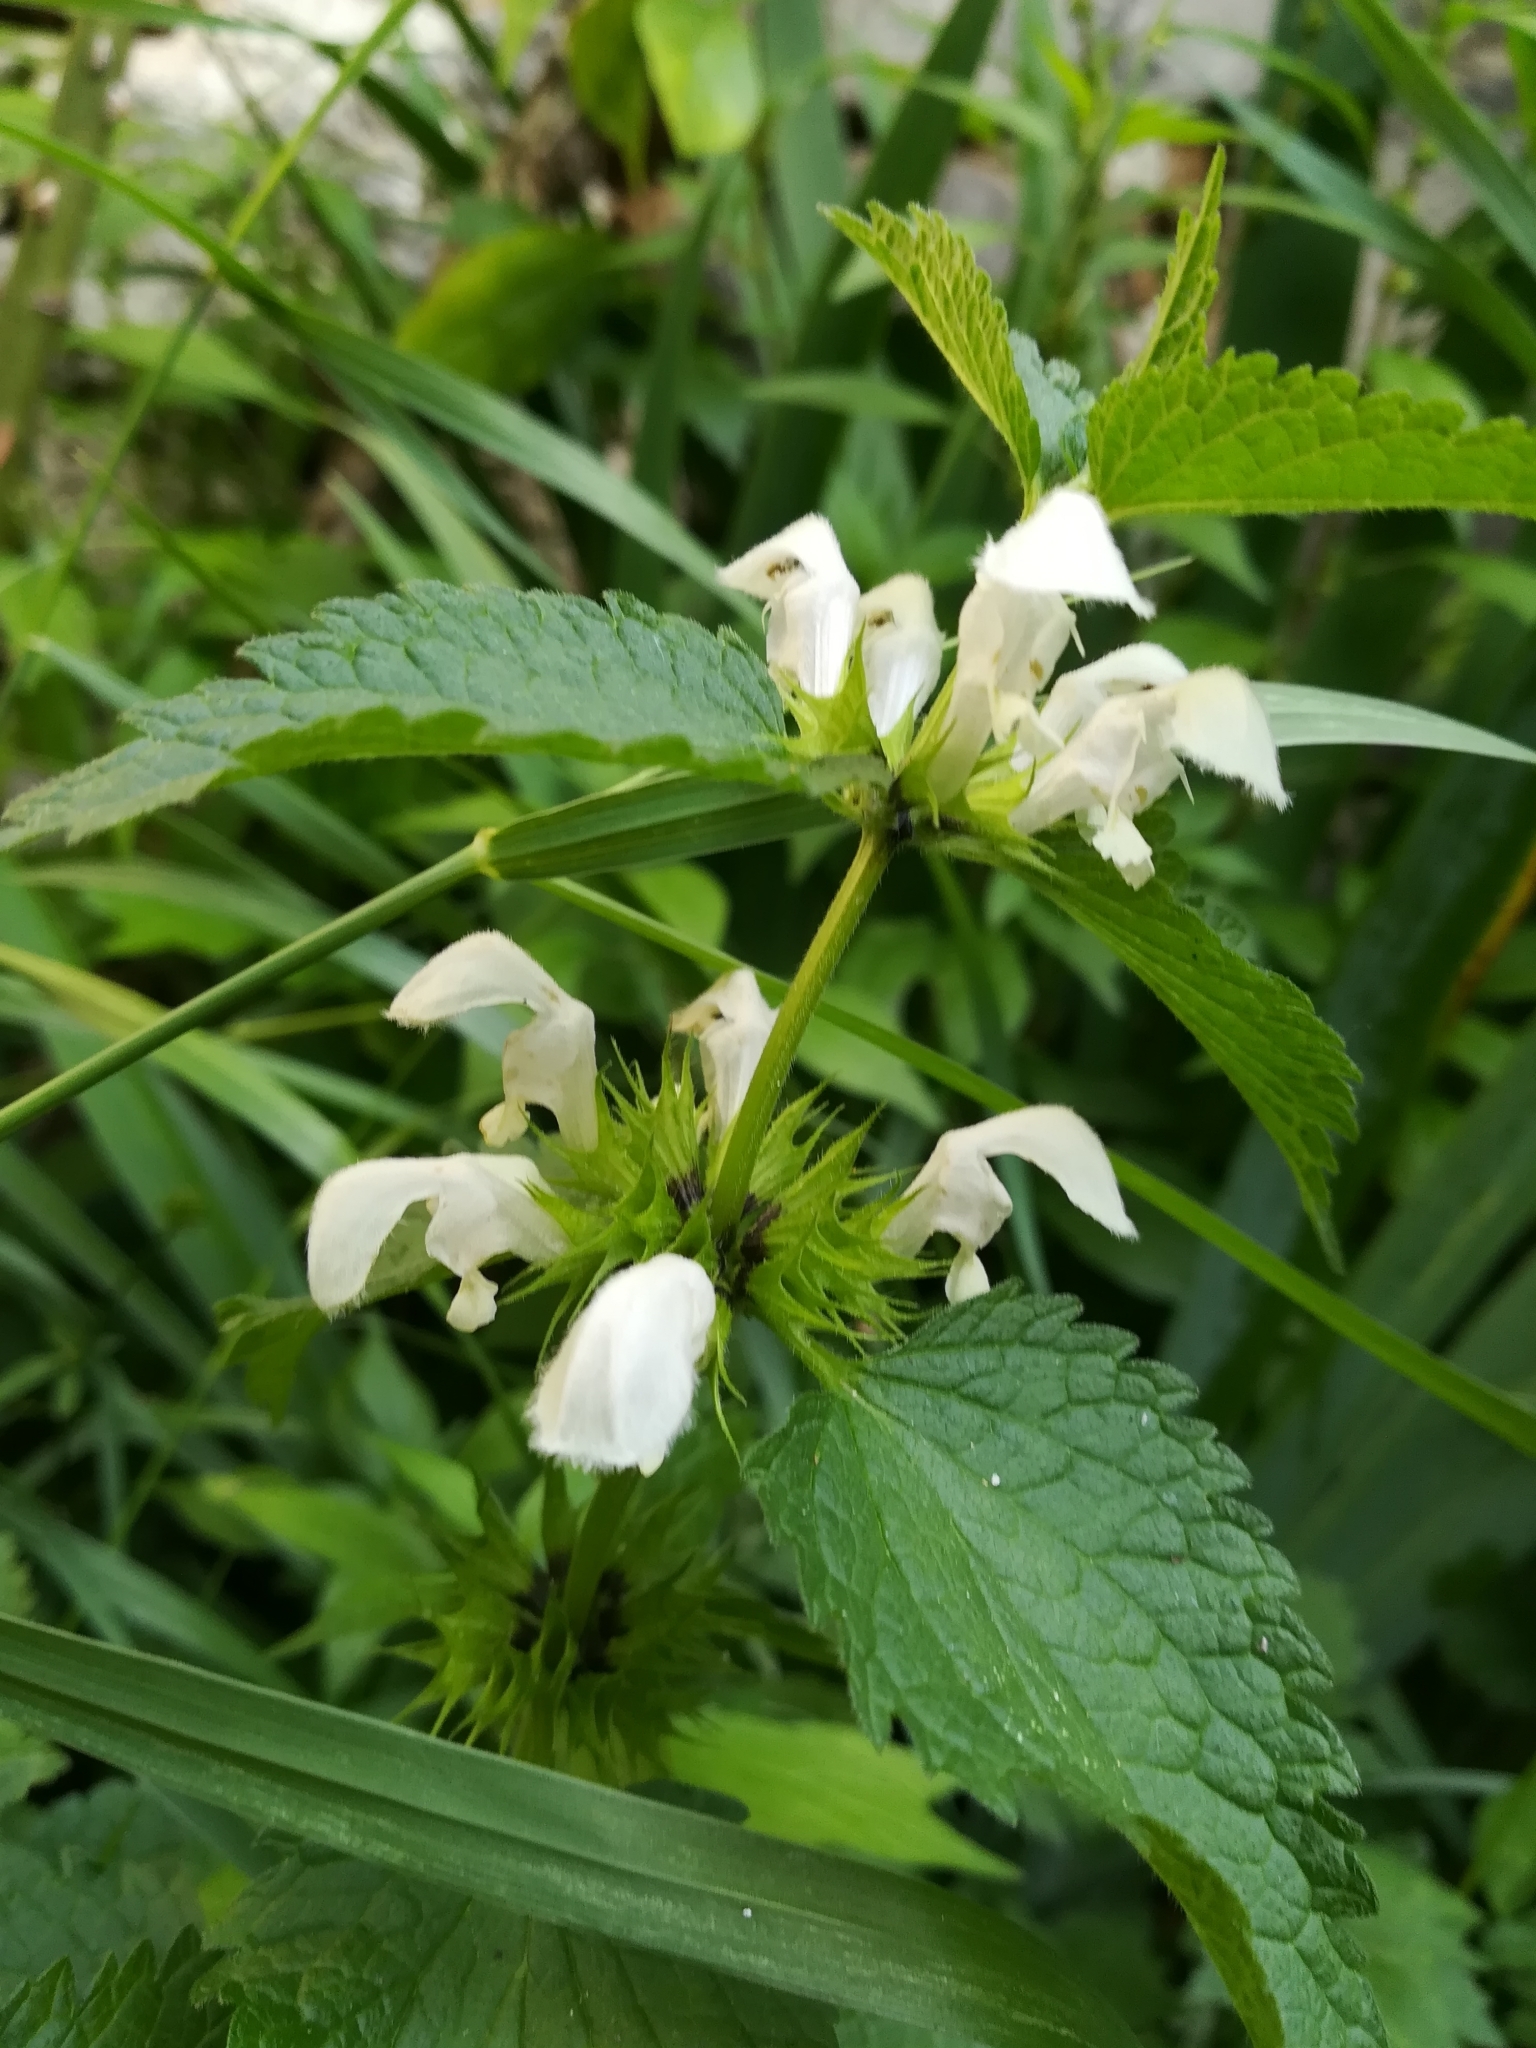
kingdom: Plantae
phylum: Tracheophyta
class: Magnoliopsida
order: Lamiales
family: Lamiaceae
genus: Lamium
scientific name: Lamium album
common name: White dead-nettle
